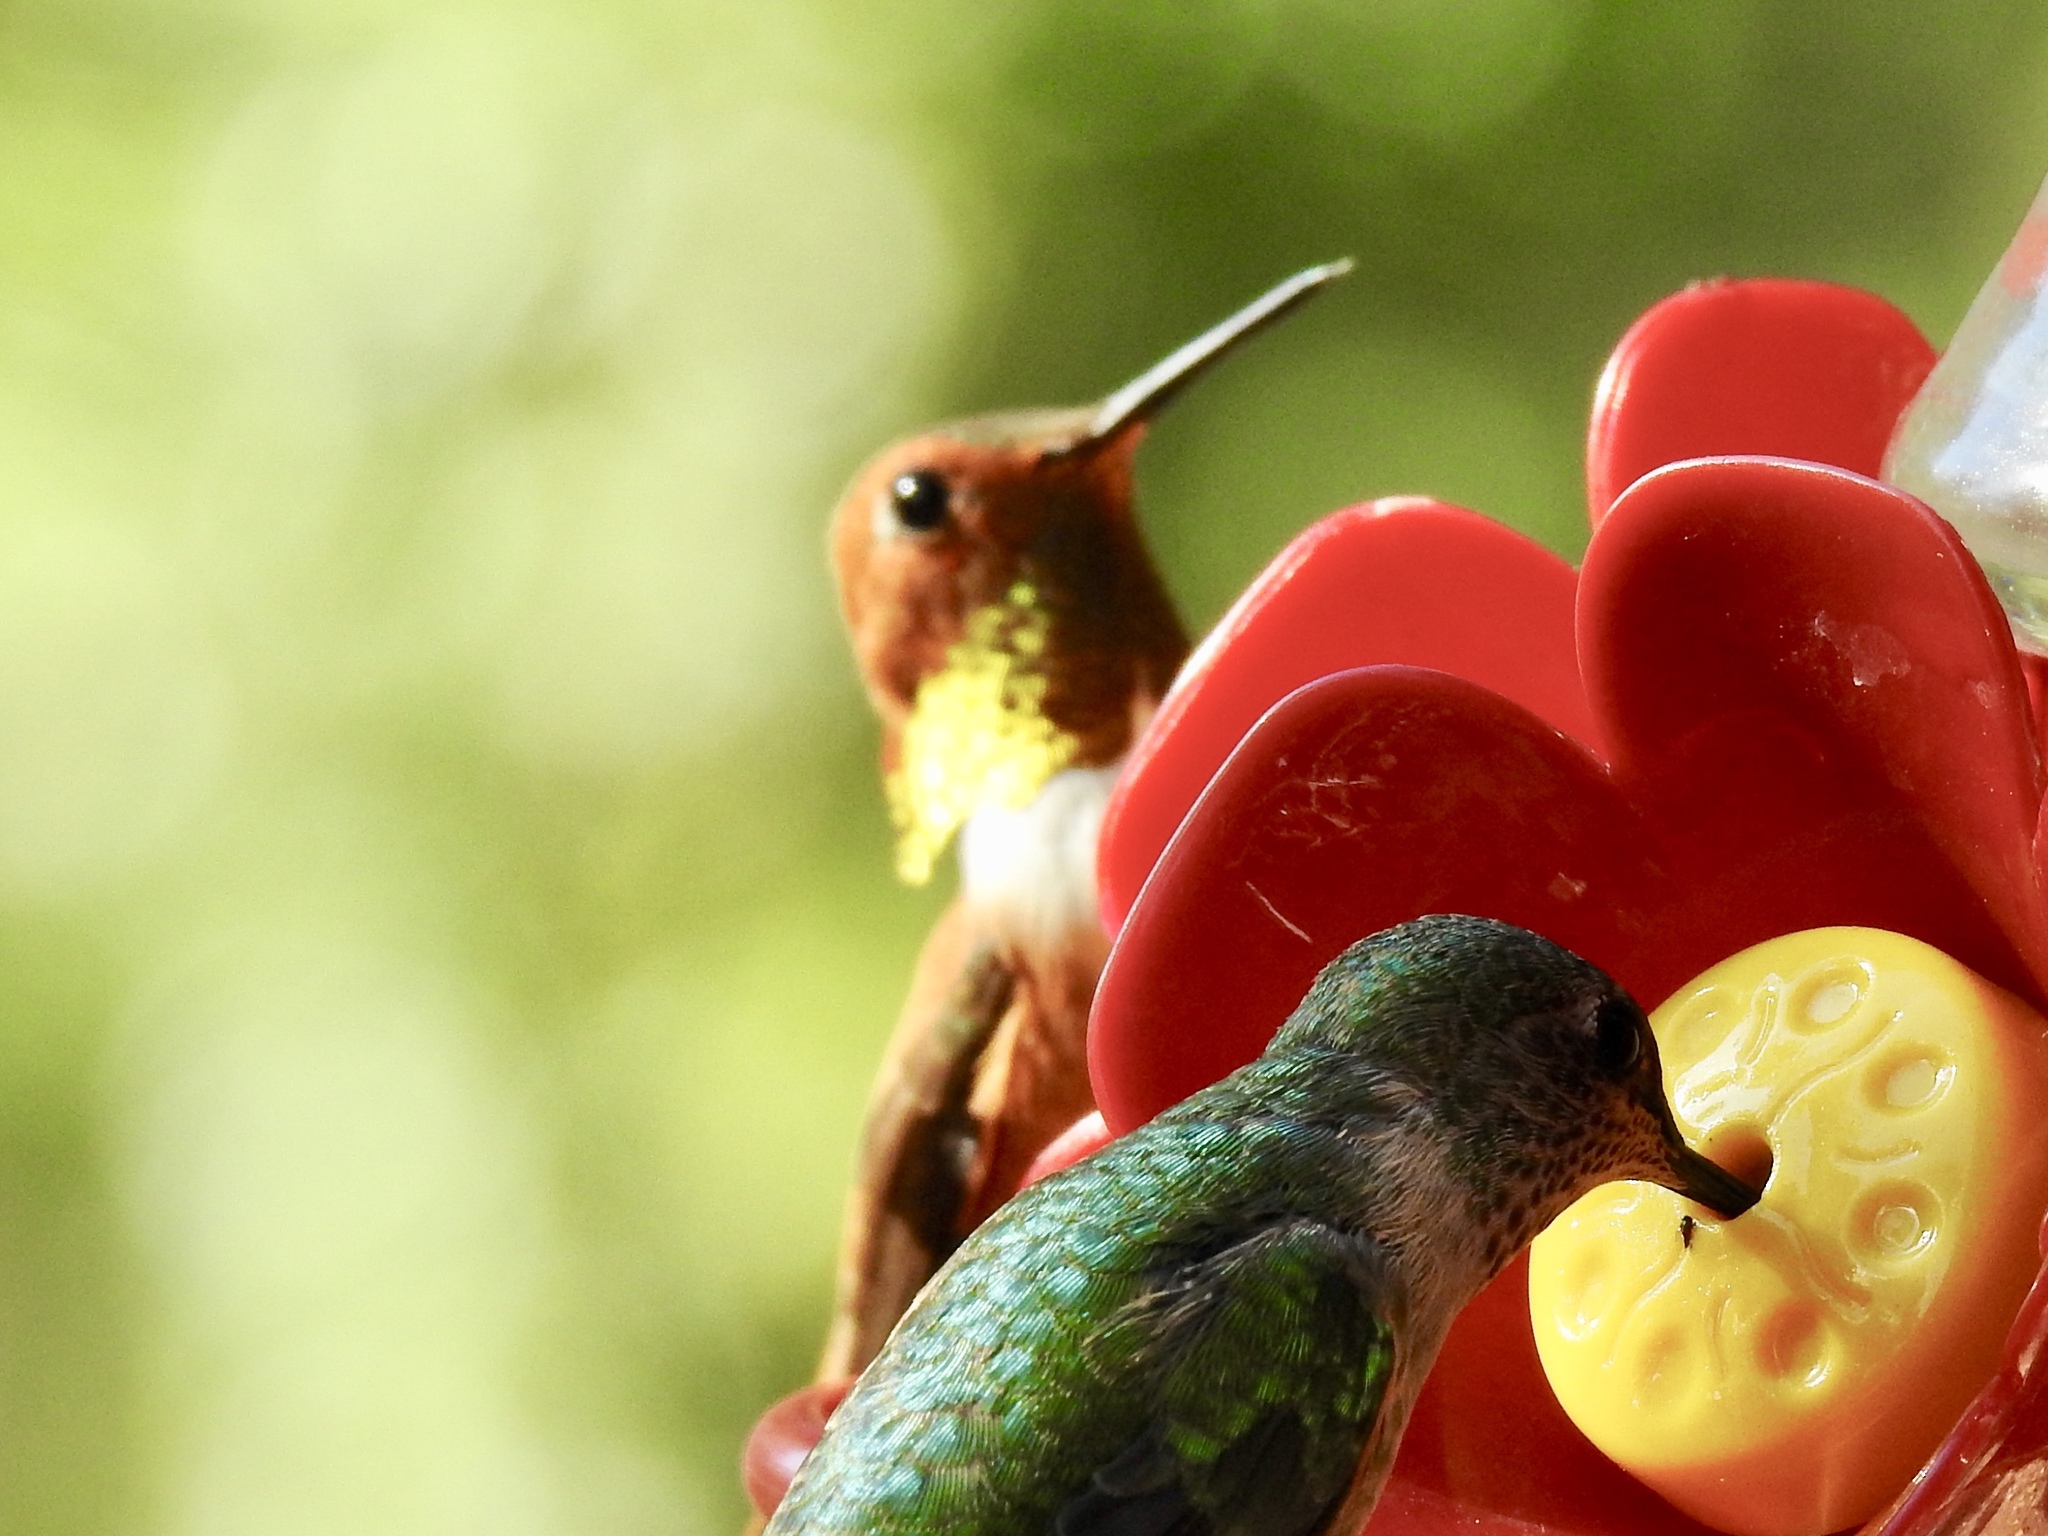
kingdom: Animalia
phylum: Chordata
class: Aves
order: Apodiformes
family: Trochilidae
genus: Selasphorus
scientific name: Selasphorus rufus
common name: Rufous hummingbird
